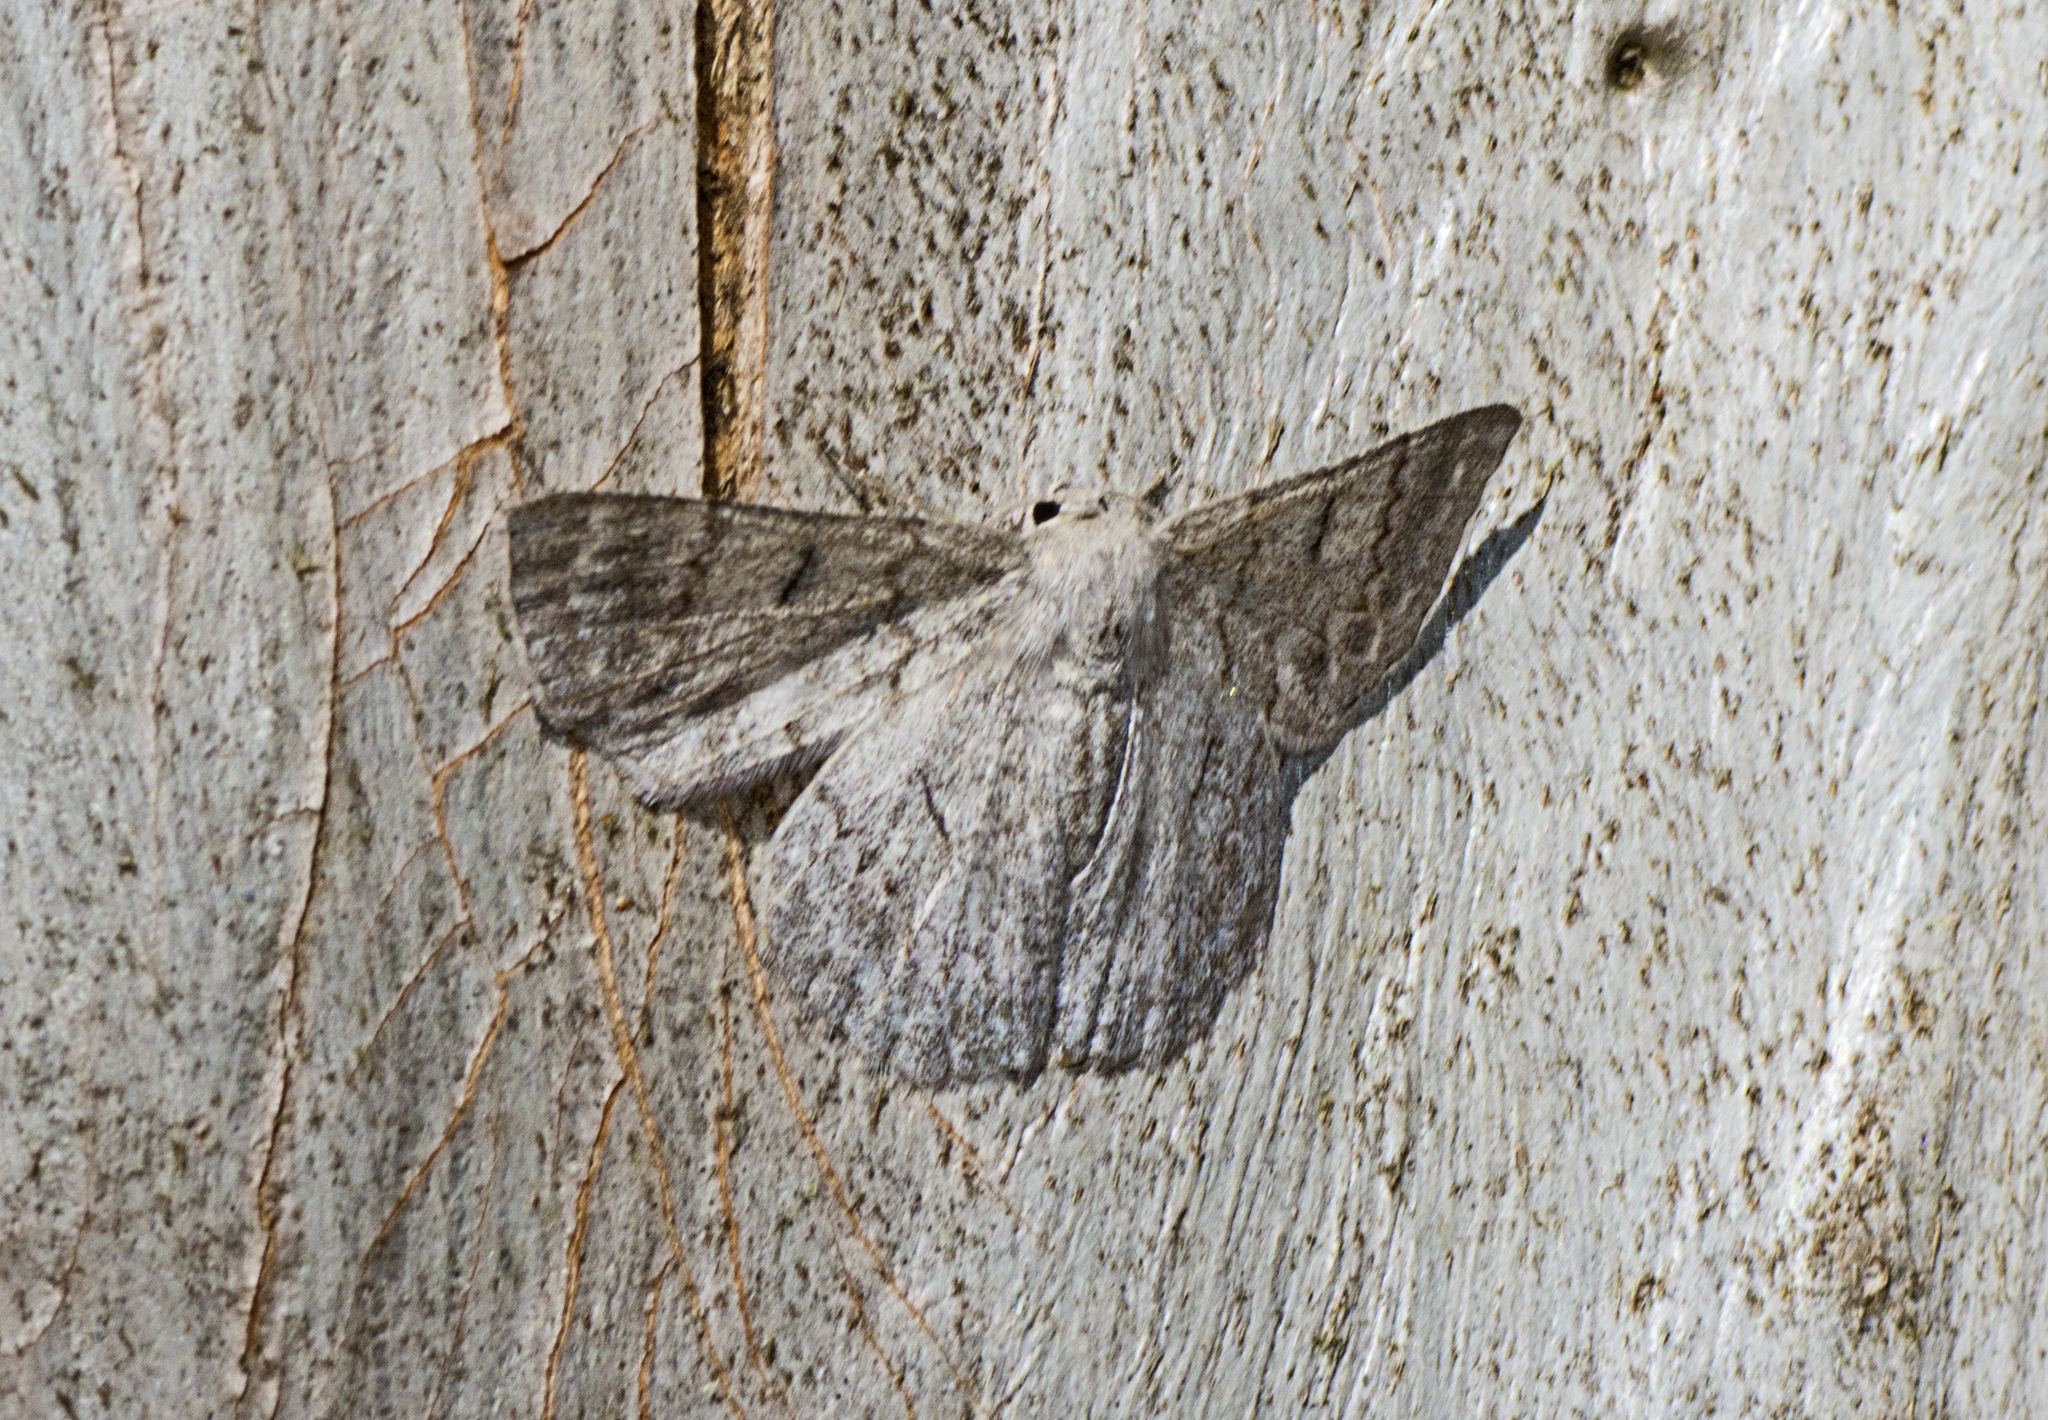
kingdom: Animalia
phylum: Arthropoda
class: Insecta
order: Lepidoptera
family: Geometridae
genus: Crypsiphona
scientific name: Crypsiphona ocultaria
